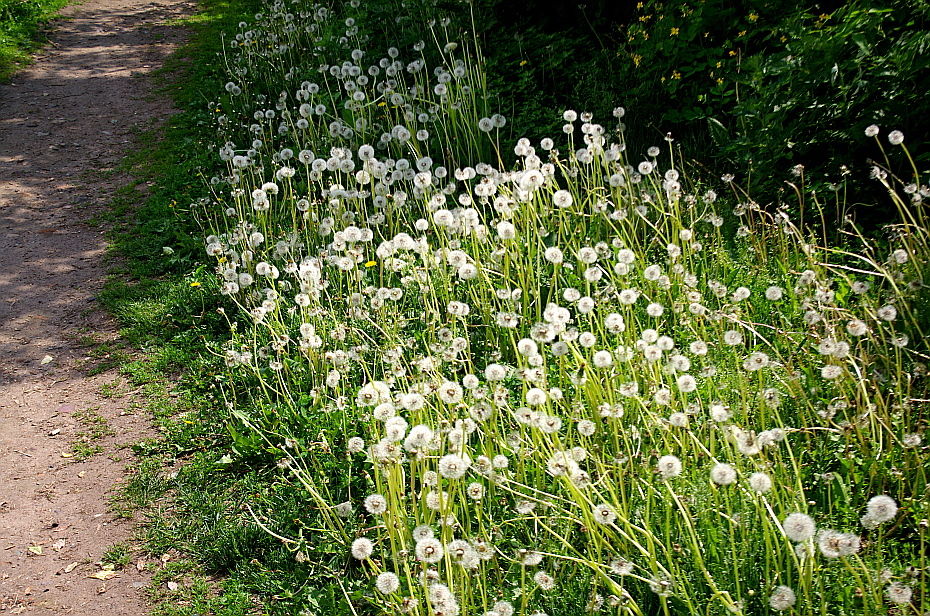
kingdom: Plantae
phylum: Tracheophyta
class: Magnoliopsida
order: Asterales
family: Asteraceae
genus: Taraxacum
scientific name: Taraxacum officinale
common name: Common dandelion
